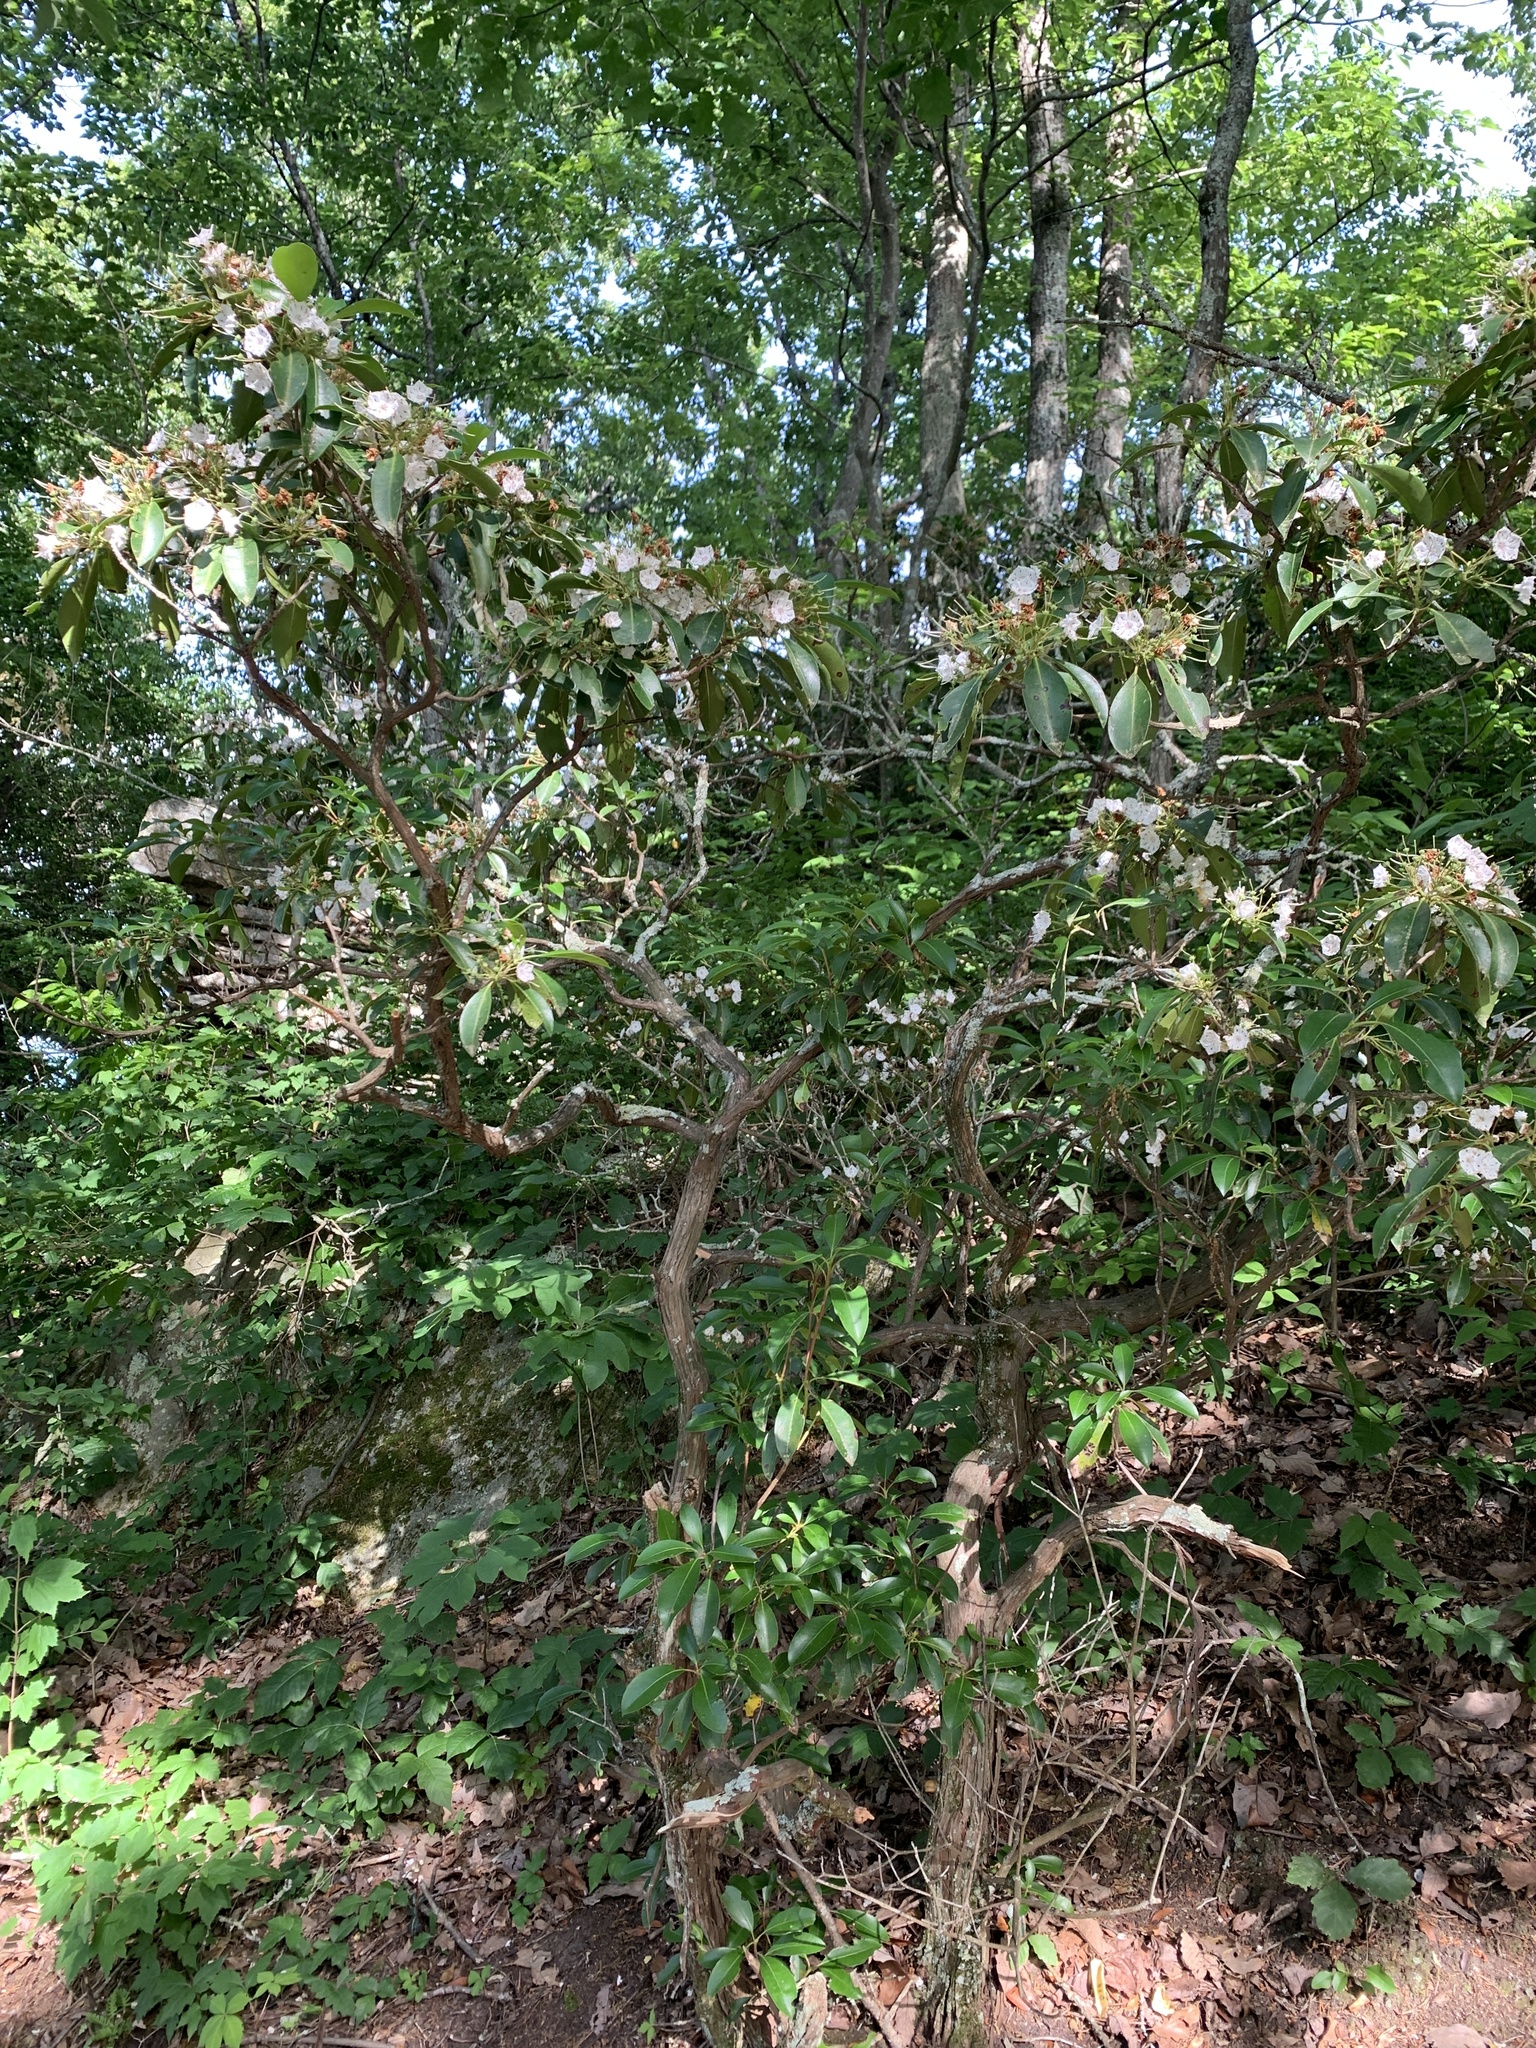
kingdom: Plantae
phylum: Tracheophyta
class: Magnoliopsida
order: Ericales
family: Ericaceae
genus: Kalmia
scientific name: Kalmia latifolia
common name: Mountain-laurel
